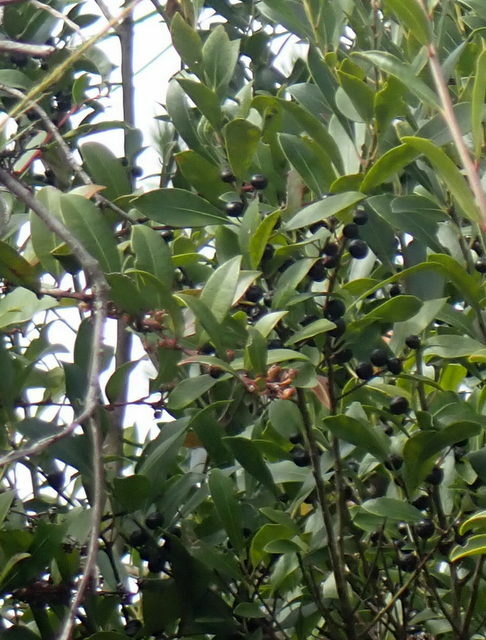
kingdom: Plantae
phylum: Tracheophyta
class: Magnoliopsida
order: Aquifoliales
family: Aquifoliaceae
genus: Ilex
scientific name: Ilex glabra
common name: Bitter gallberry
